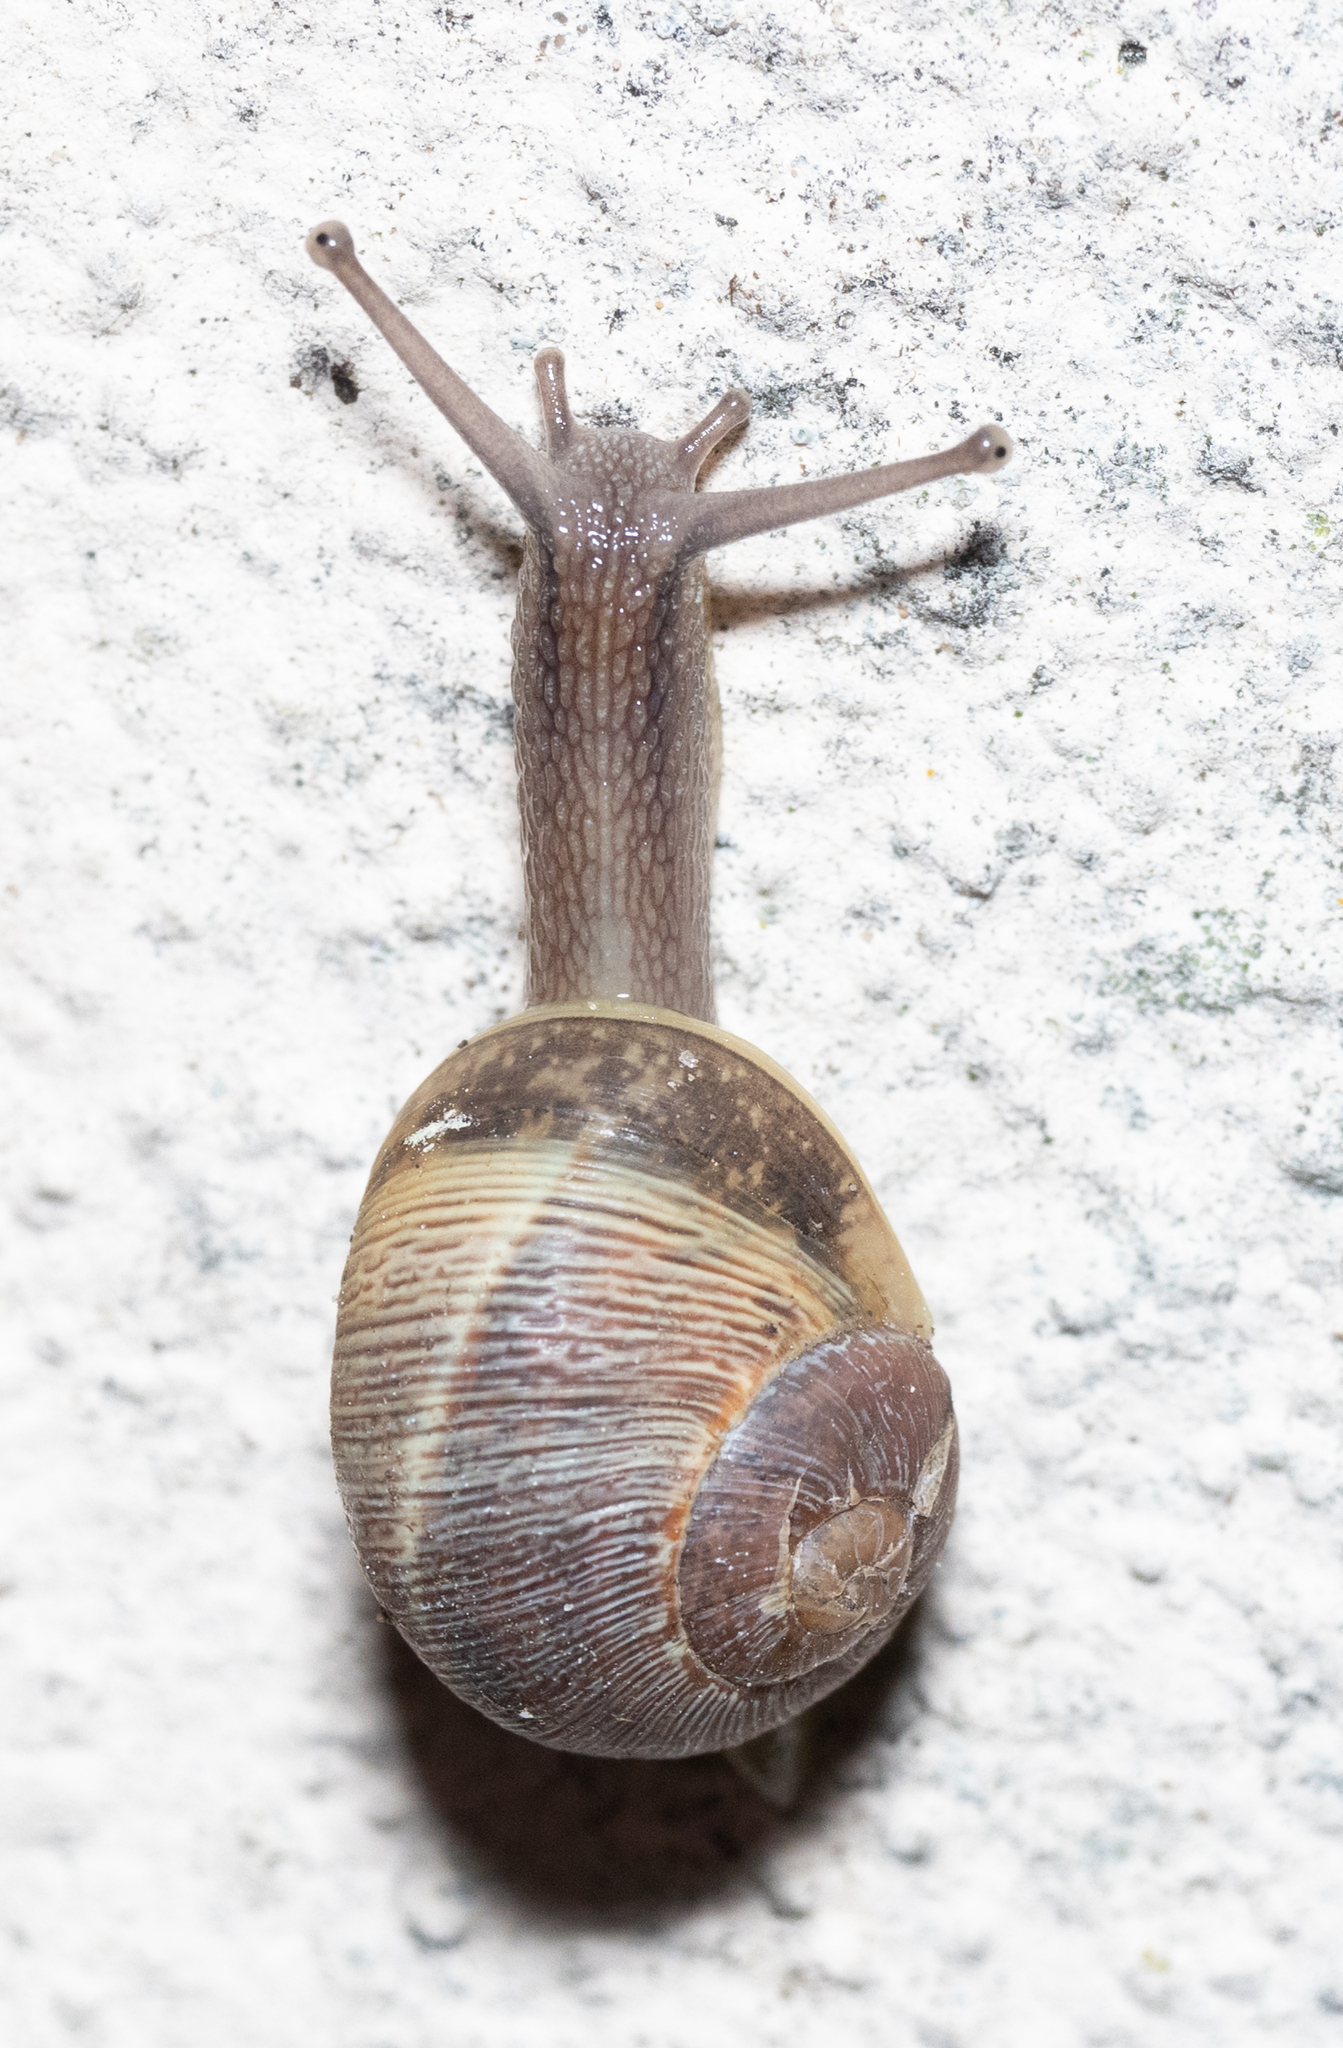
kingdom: Animalia
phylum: Mollusca
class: Gastropoda
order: Stylommatophora
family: Helicidae
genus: Cornu
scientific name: Cornu aspersum
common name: Brown garden snail
